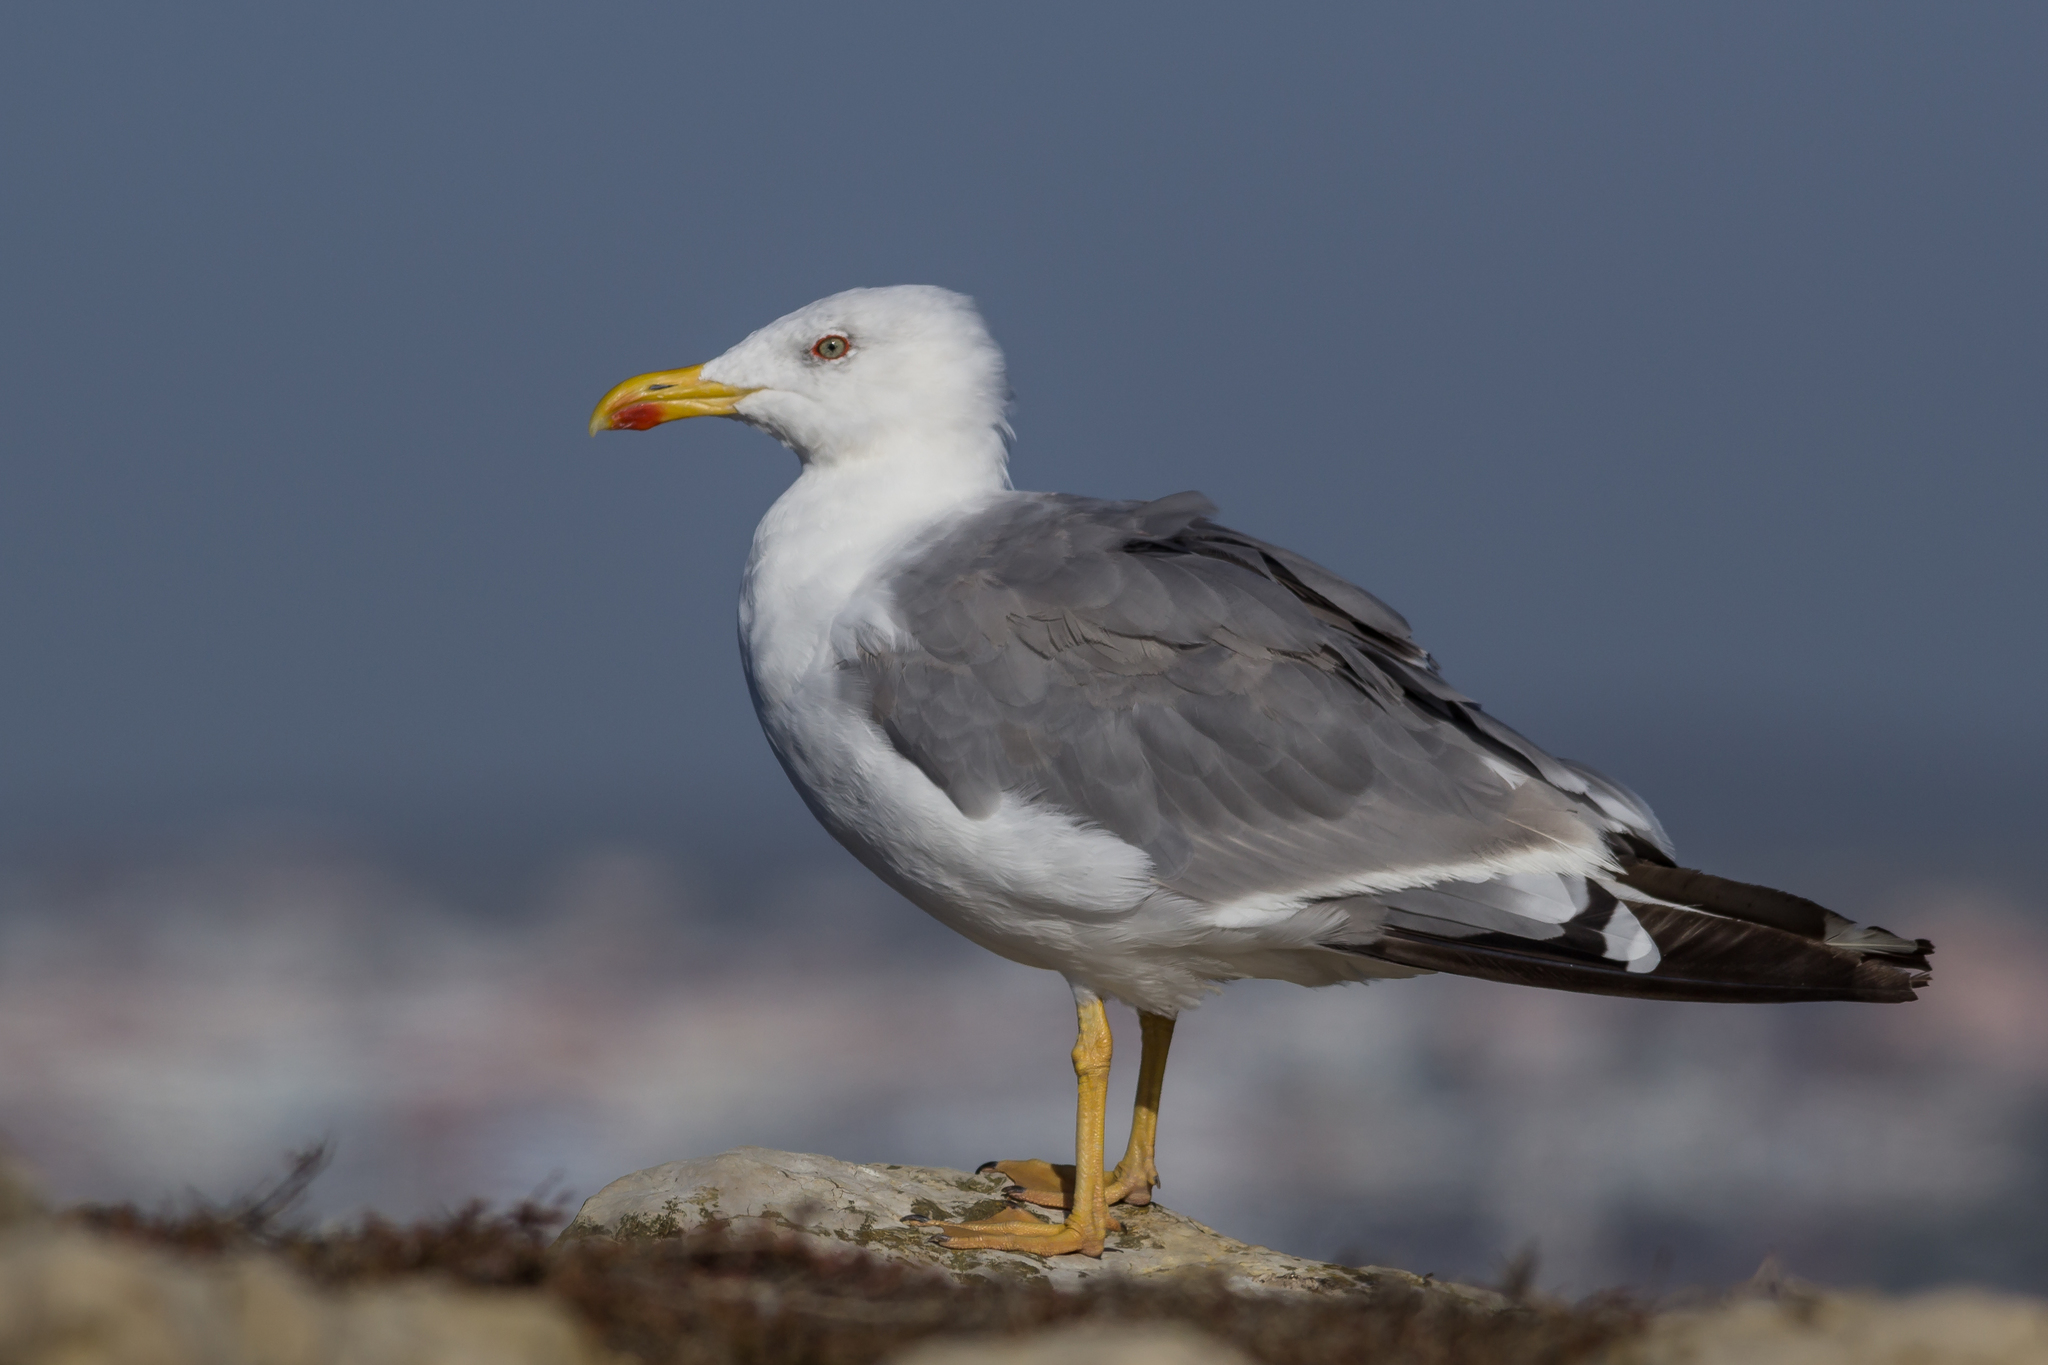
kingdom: Animalia
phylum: Chordata
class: Aves
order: Charadriiformes
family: Laridae
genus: Larus
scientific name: Larus michahellis
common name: Yellow-legged gull
